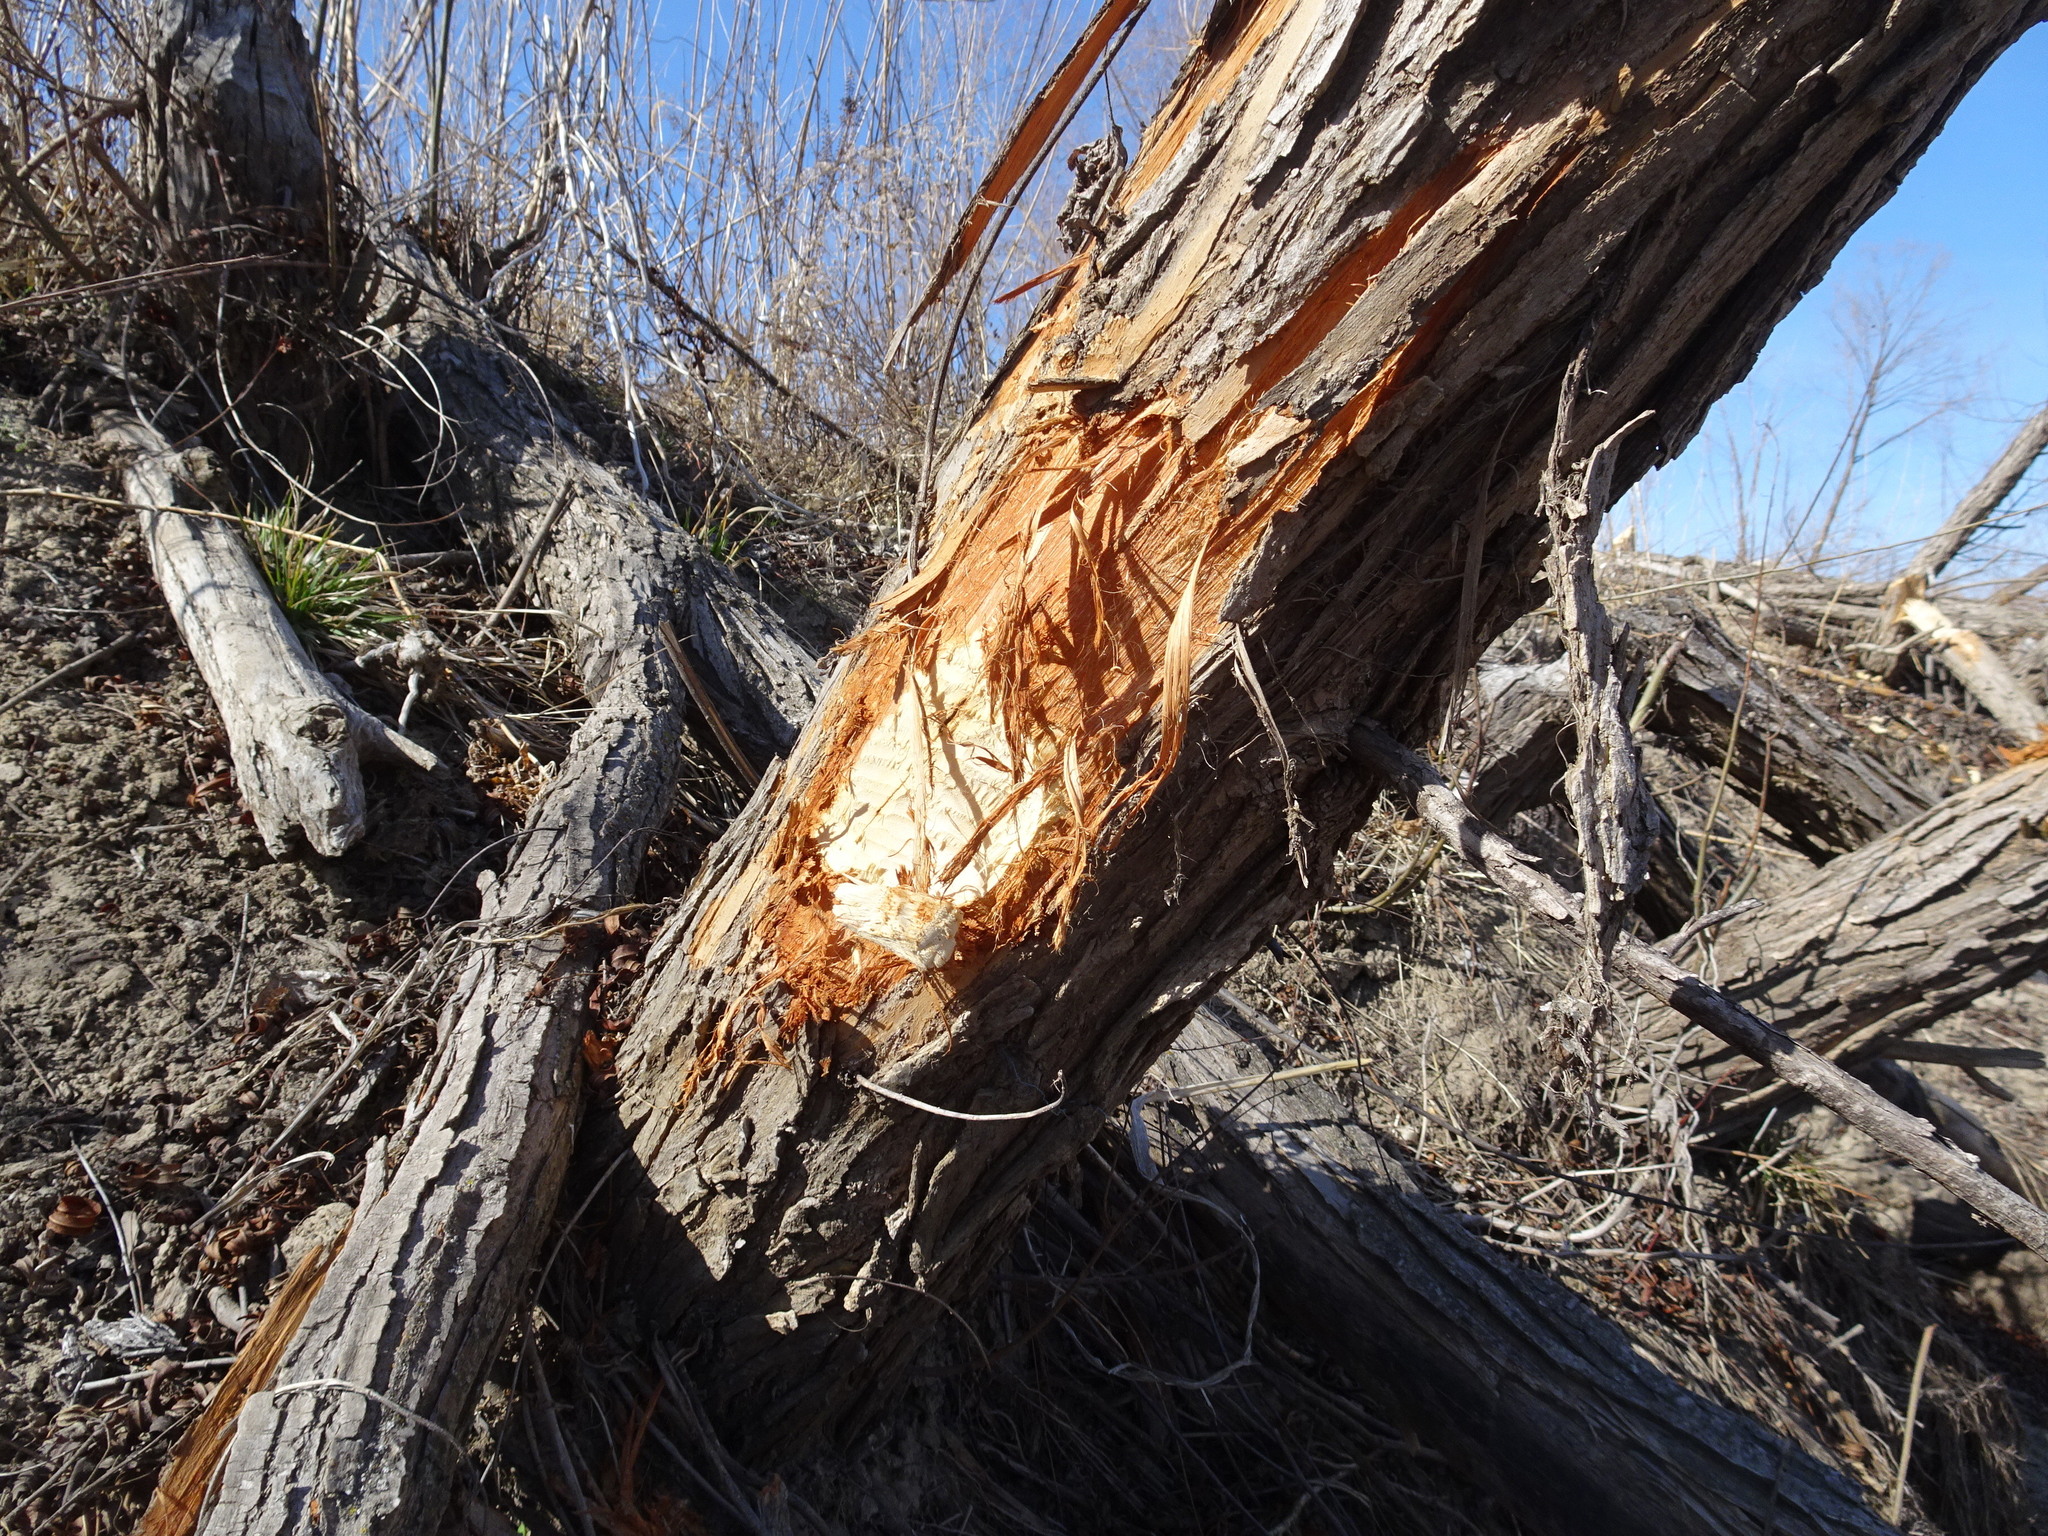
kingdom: Animalia
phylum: Chordata
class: Mammalia
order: Rodentia
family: Castoridae
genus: Castor
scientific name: Castor canadensis
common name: American beaver
